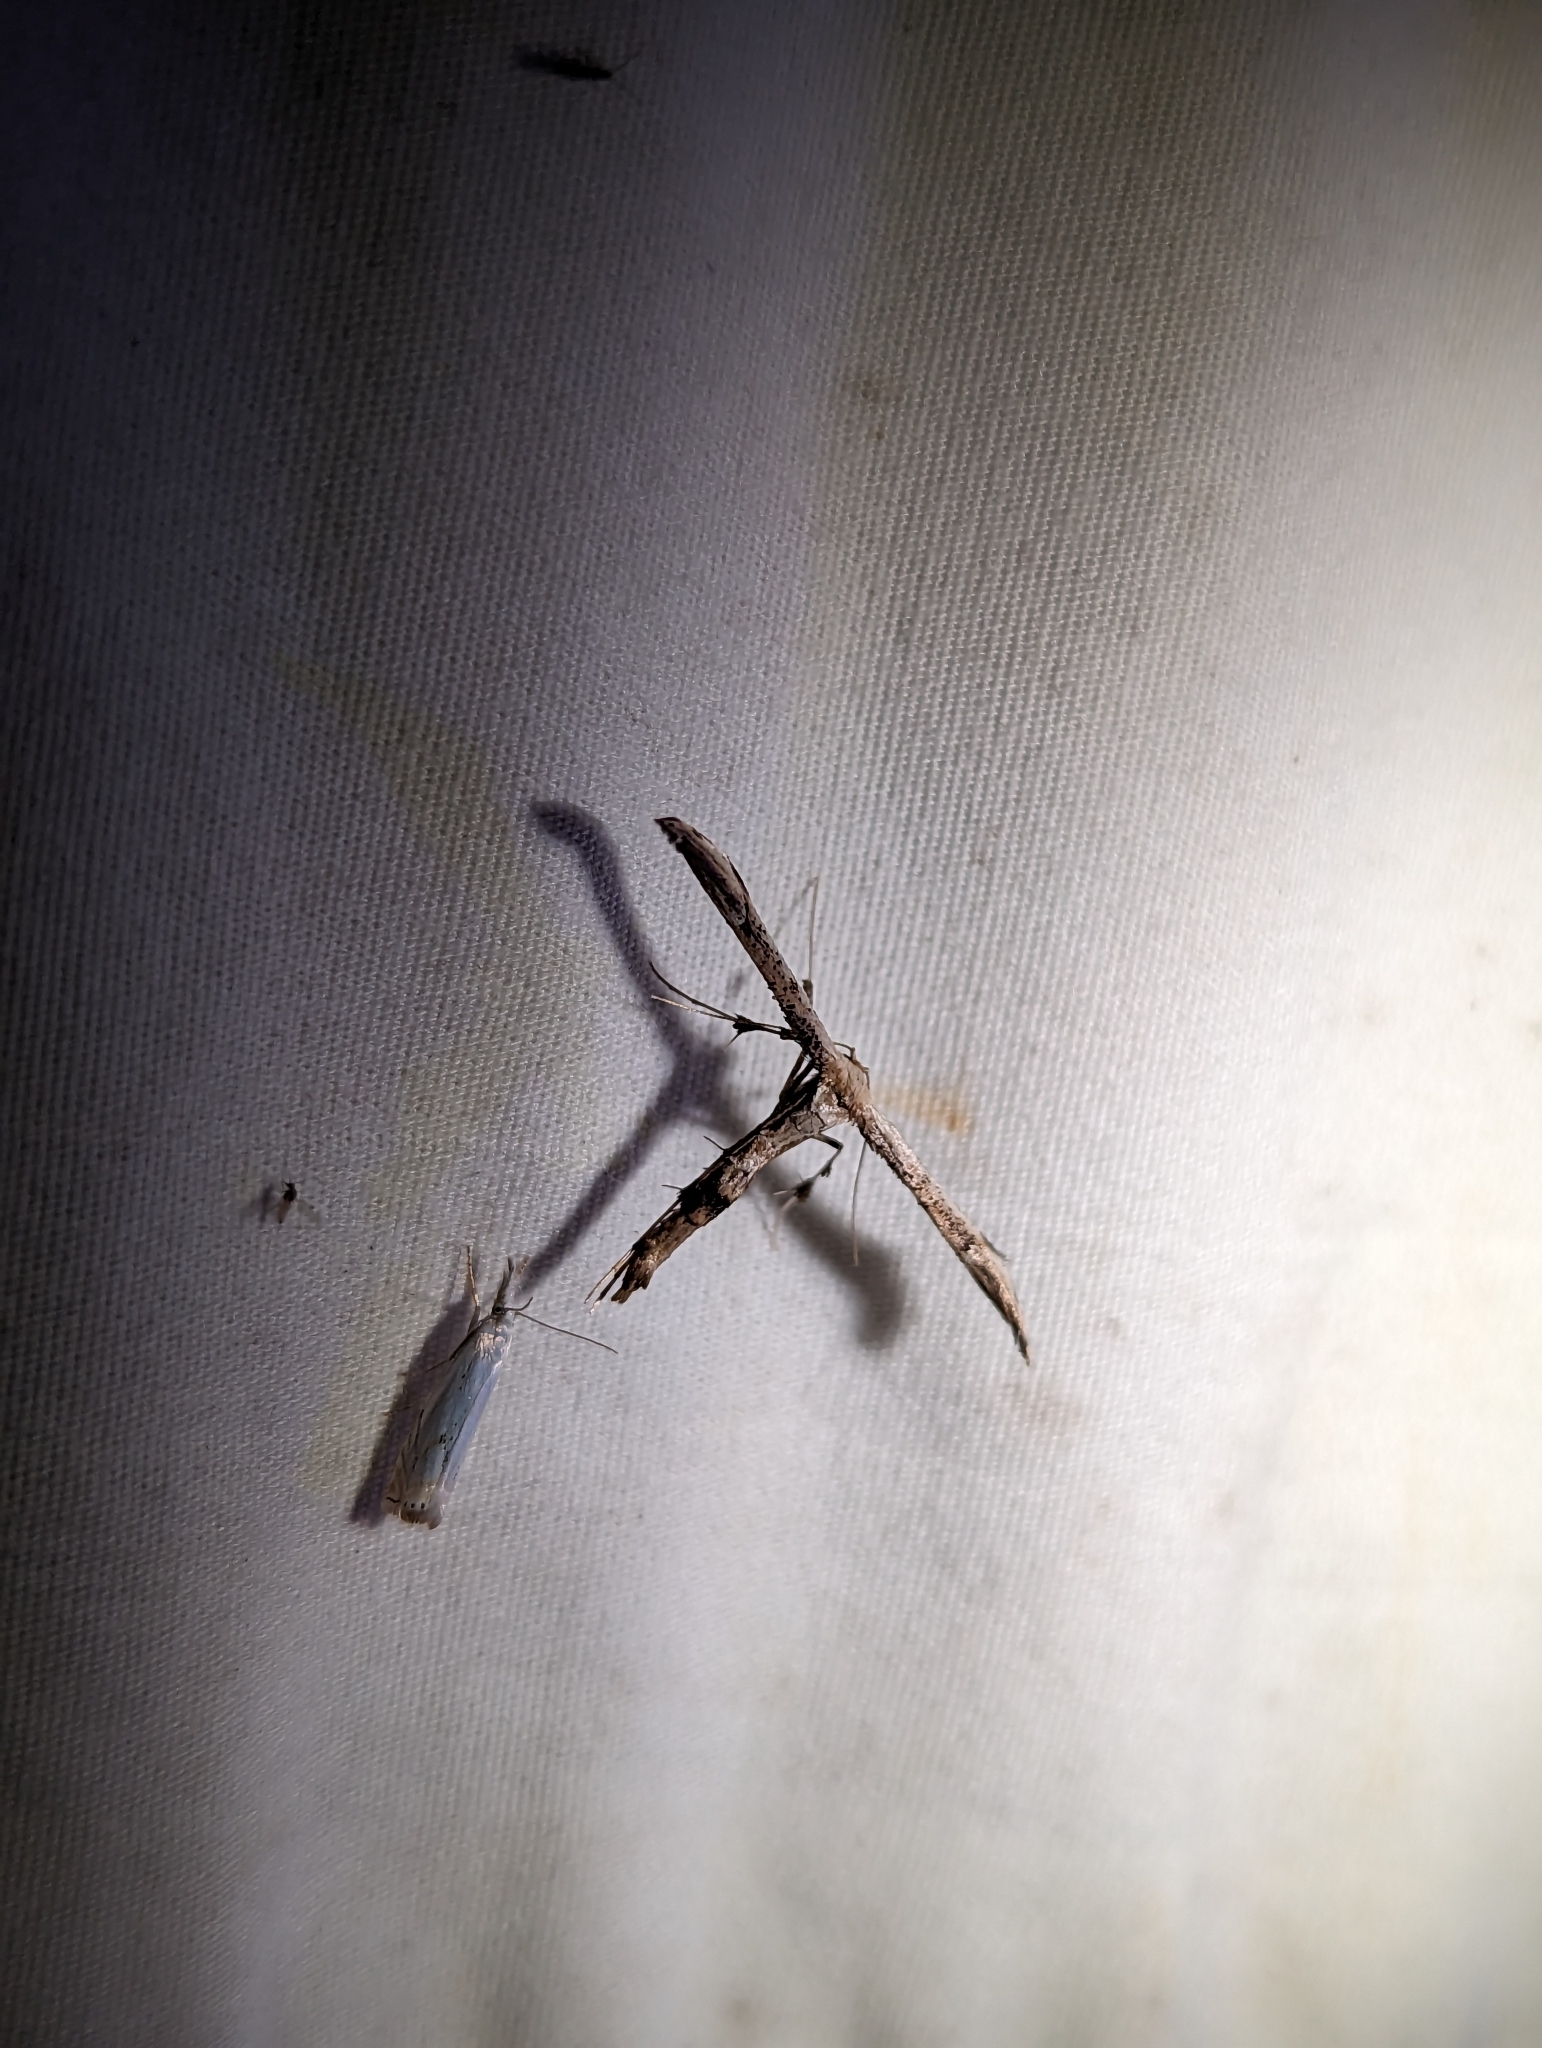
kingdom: Animalia
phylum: Arthropoda
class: Insecta
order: Lepidoptera
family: Pterophoridae
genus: Oidaematophorus
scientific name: Oidaematophorus eupatorii
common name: Eupatorium plume moth
